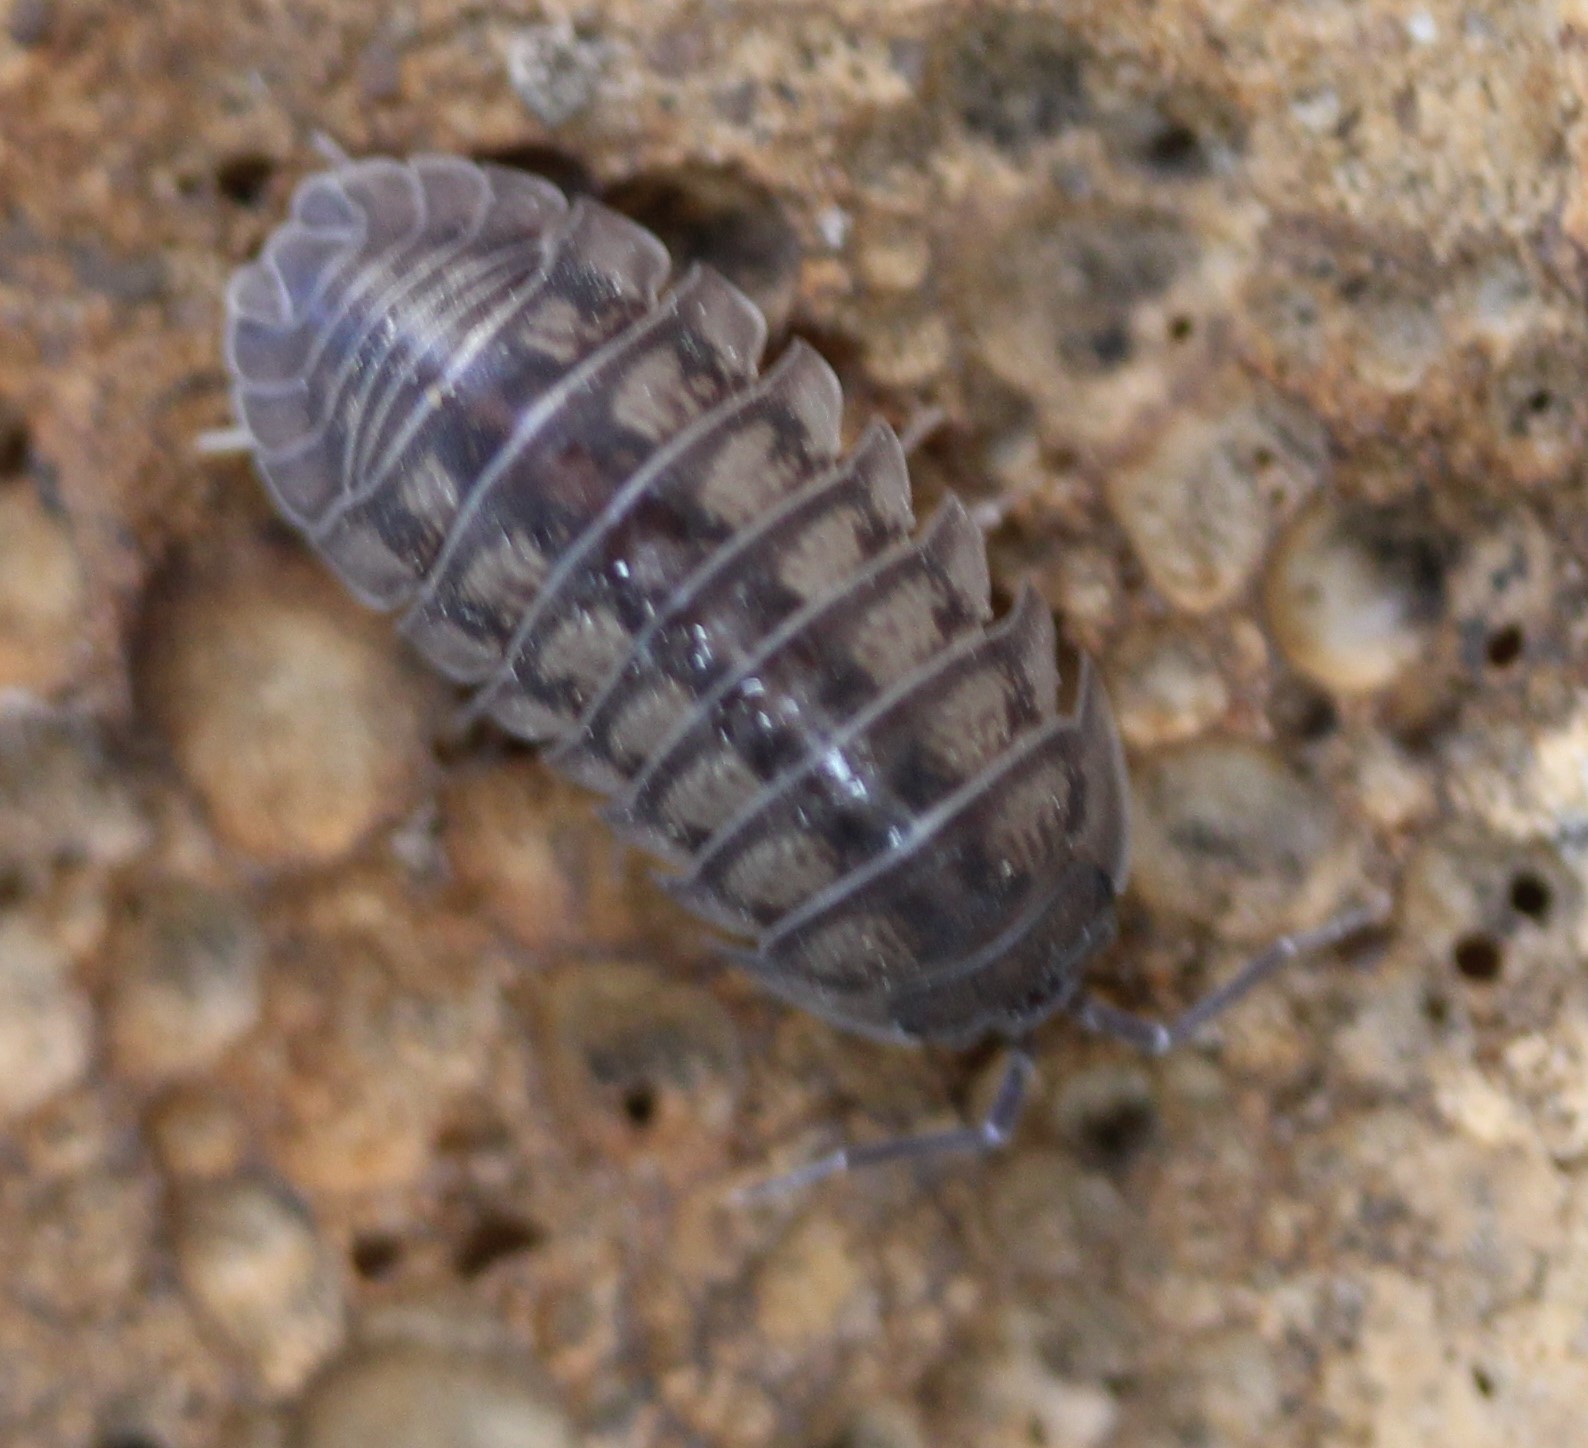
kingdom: Animalia
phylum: Arthropoda
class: Malacostraca
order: Isopoda
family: Armadillidiidae
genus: Armadillidium
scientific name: Armadillidium nasatum
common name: Isopod
